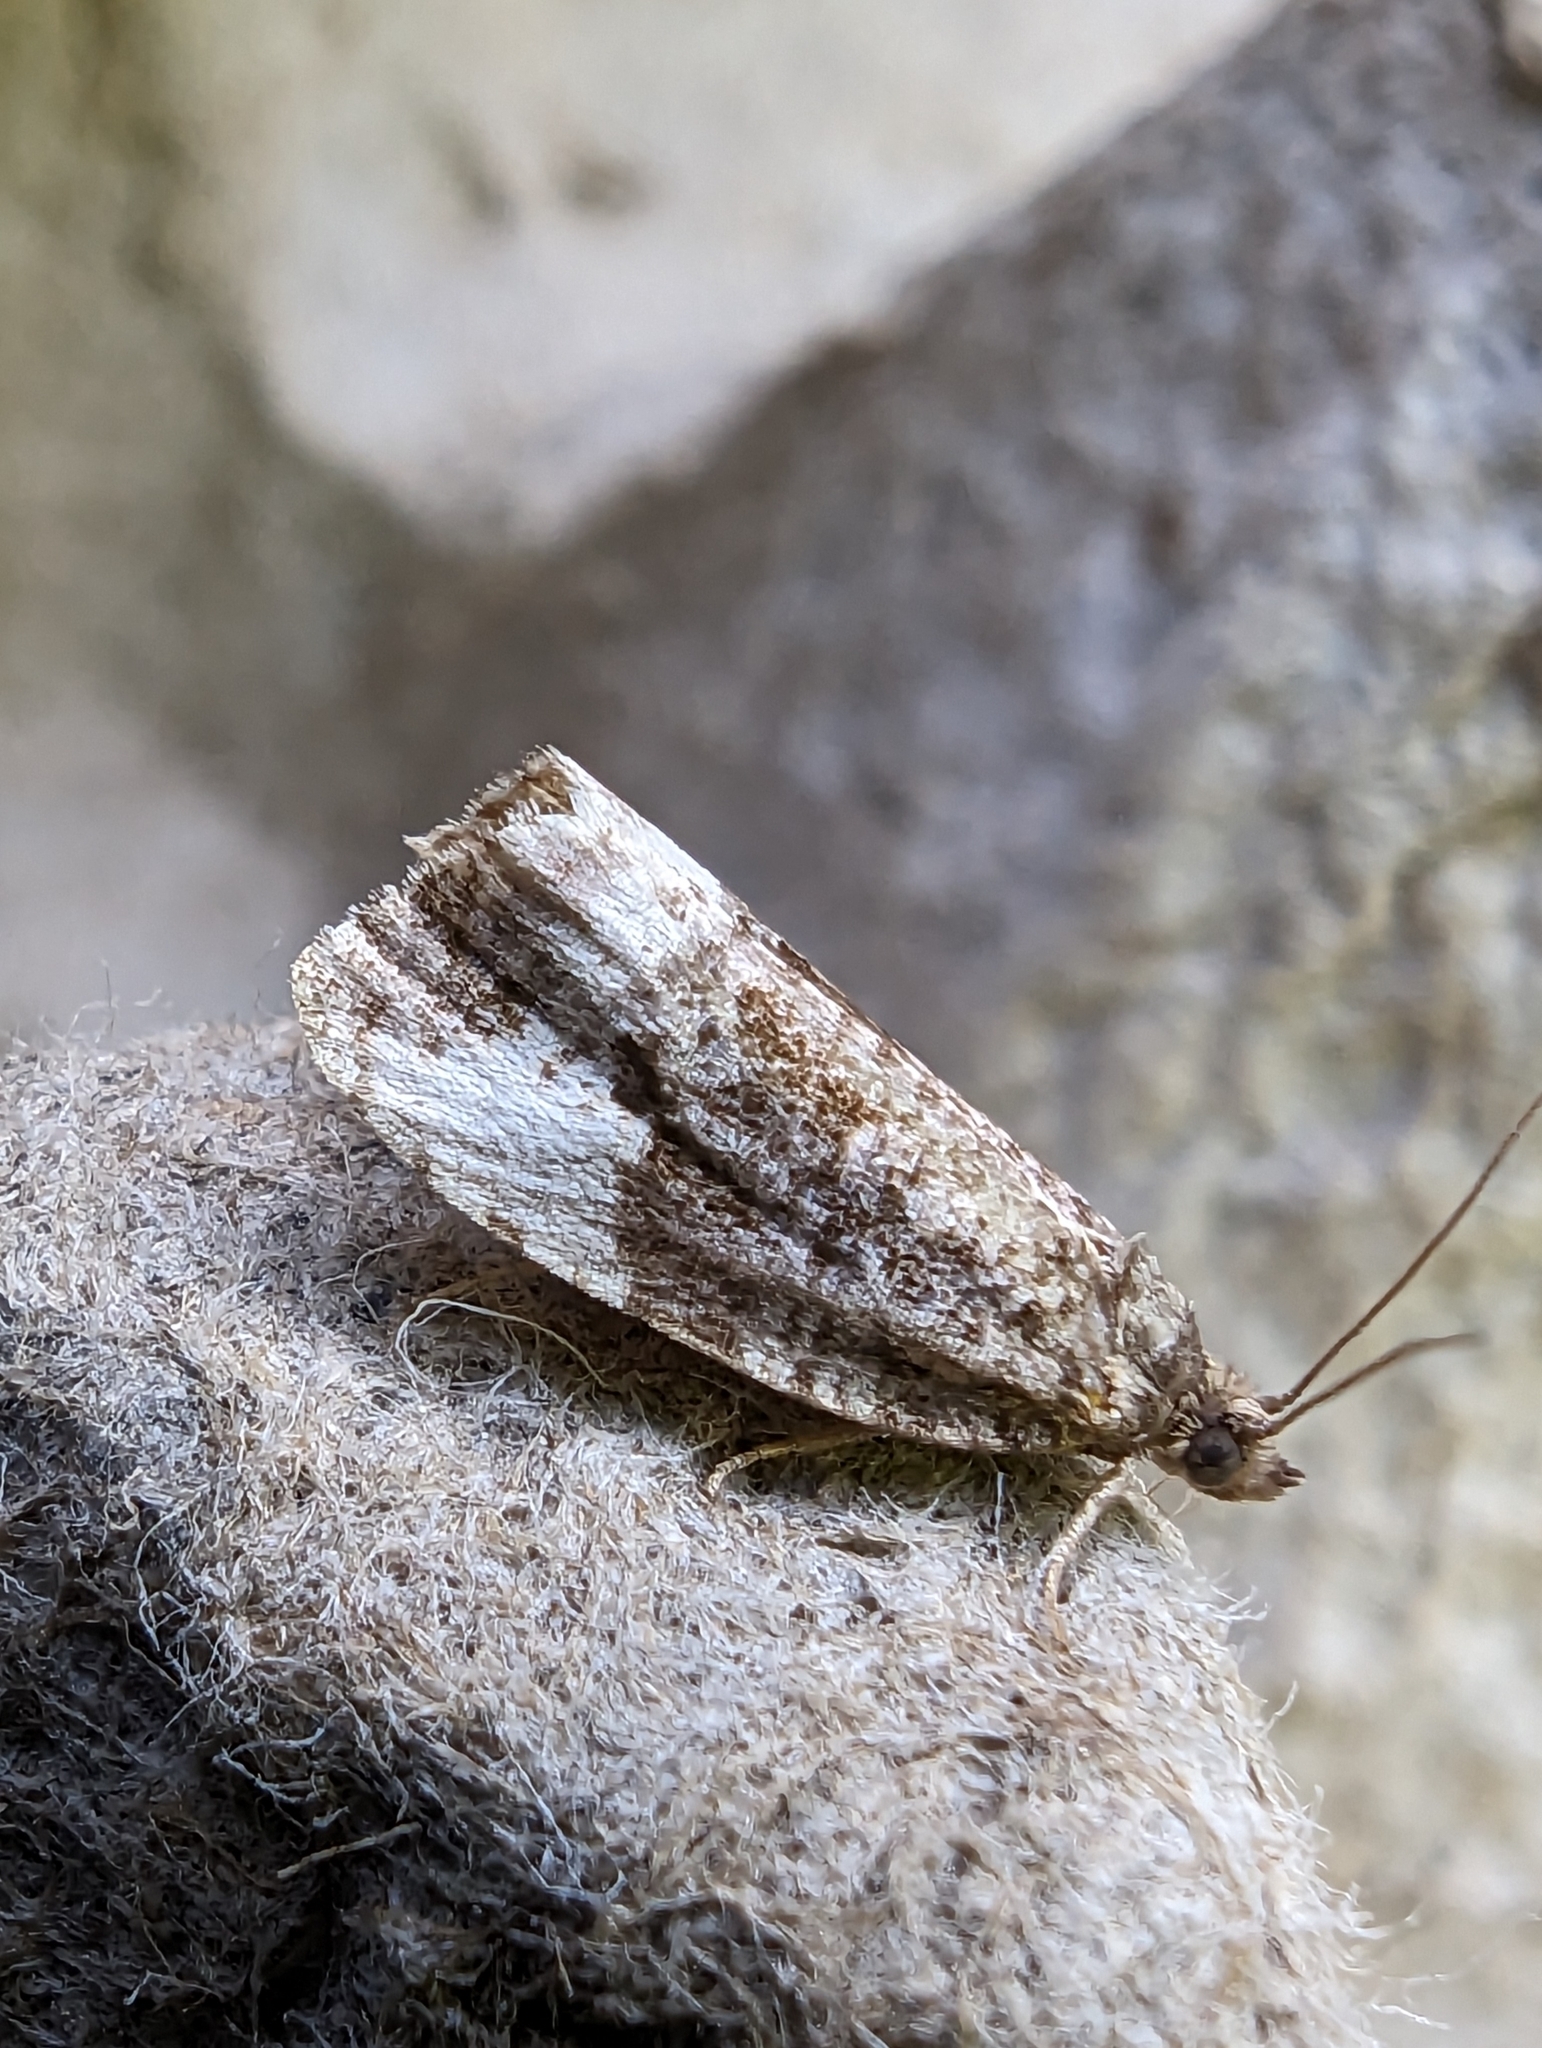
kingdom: Animalia
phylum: Arthropoda
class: Insecta
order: Lepidoptera
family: Tortricidae
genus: Hedya
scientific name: Hedya pruniana
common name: Plum tortrix
